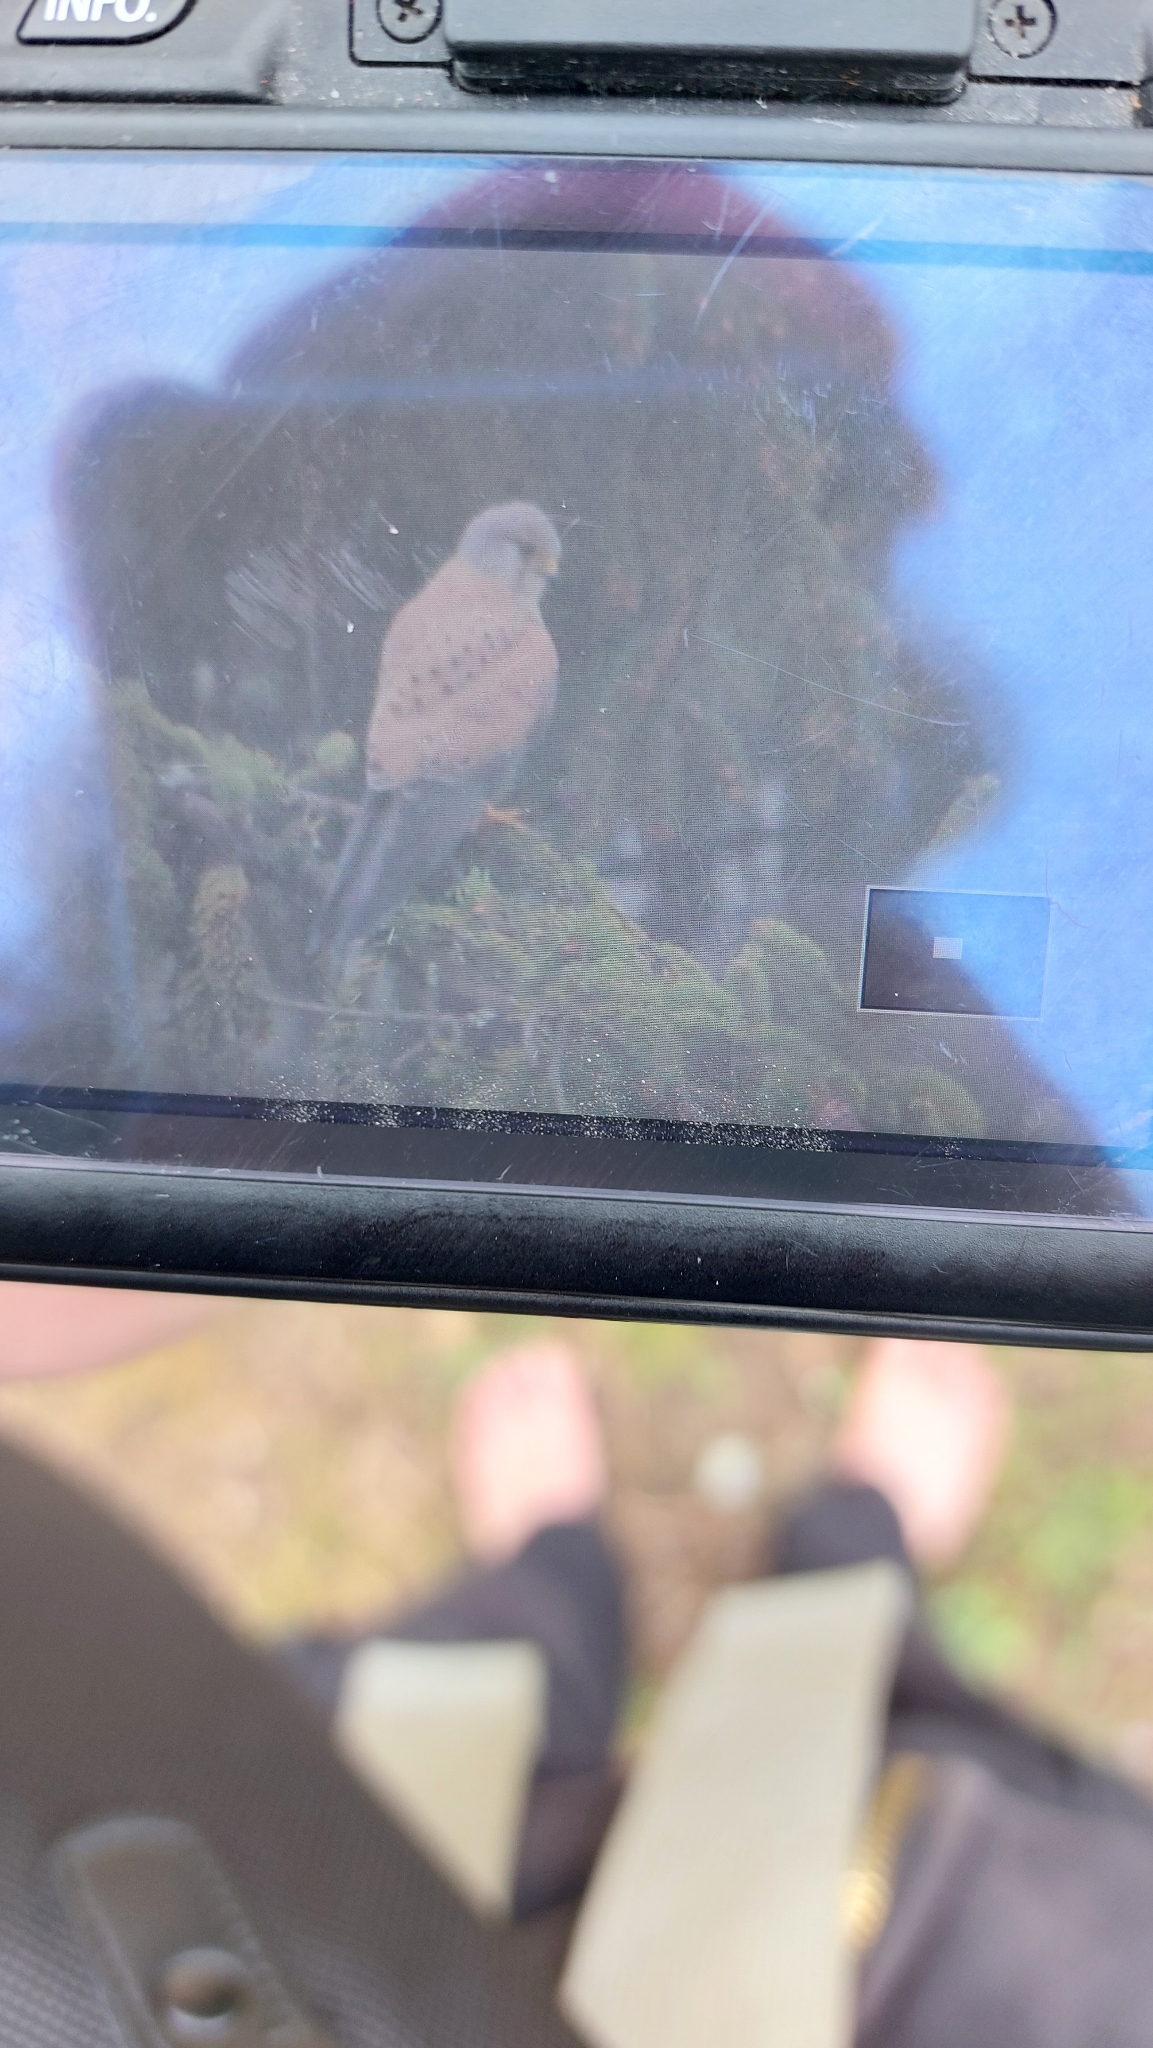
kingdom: Animalia
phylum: Chordata
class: Aves
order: Falconiformes
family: Falconidae
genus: Falco
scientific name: Falco tinnunculus
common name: Common kestrel
